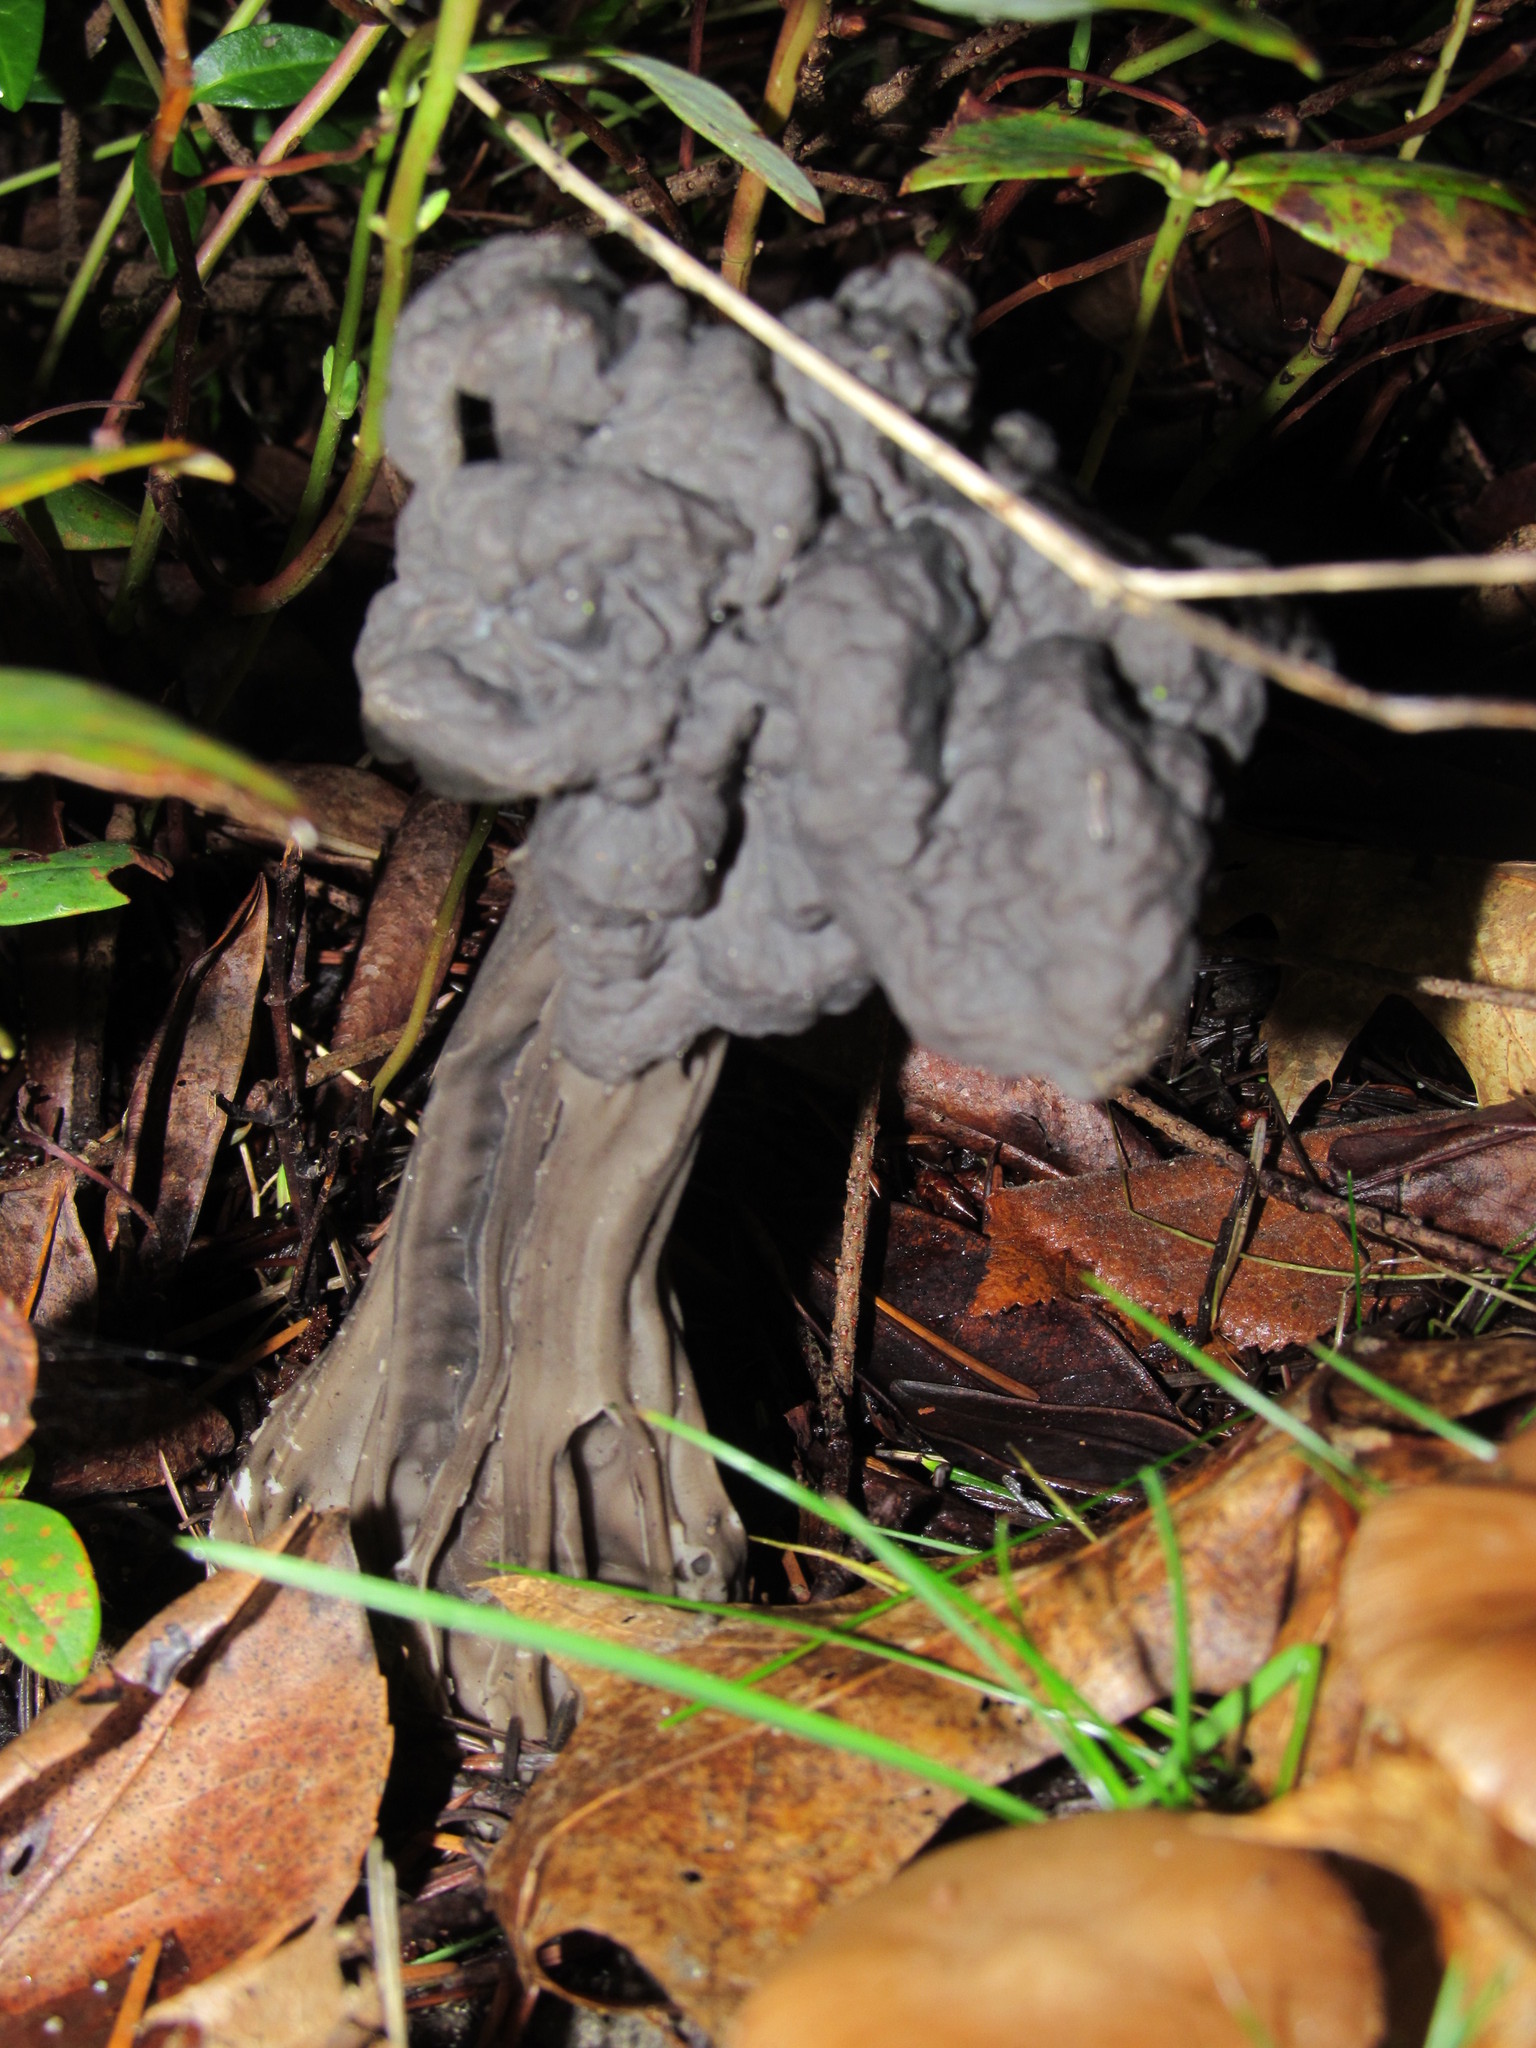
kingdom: Fungi
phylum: Ascomycota
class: Pezizomycetes
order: Pezizales
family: Helvellaceae
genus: Helvella
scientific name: Helvella vespertina
